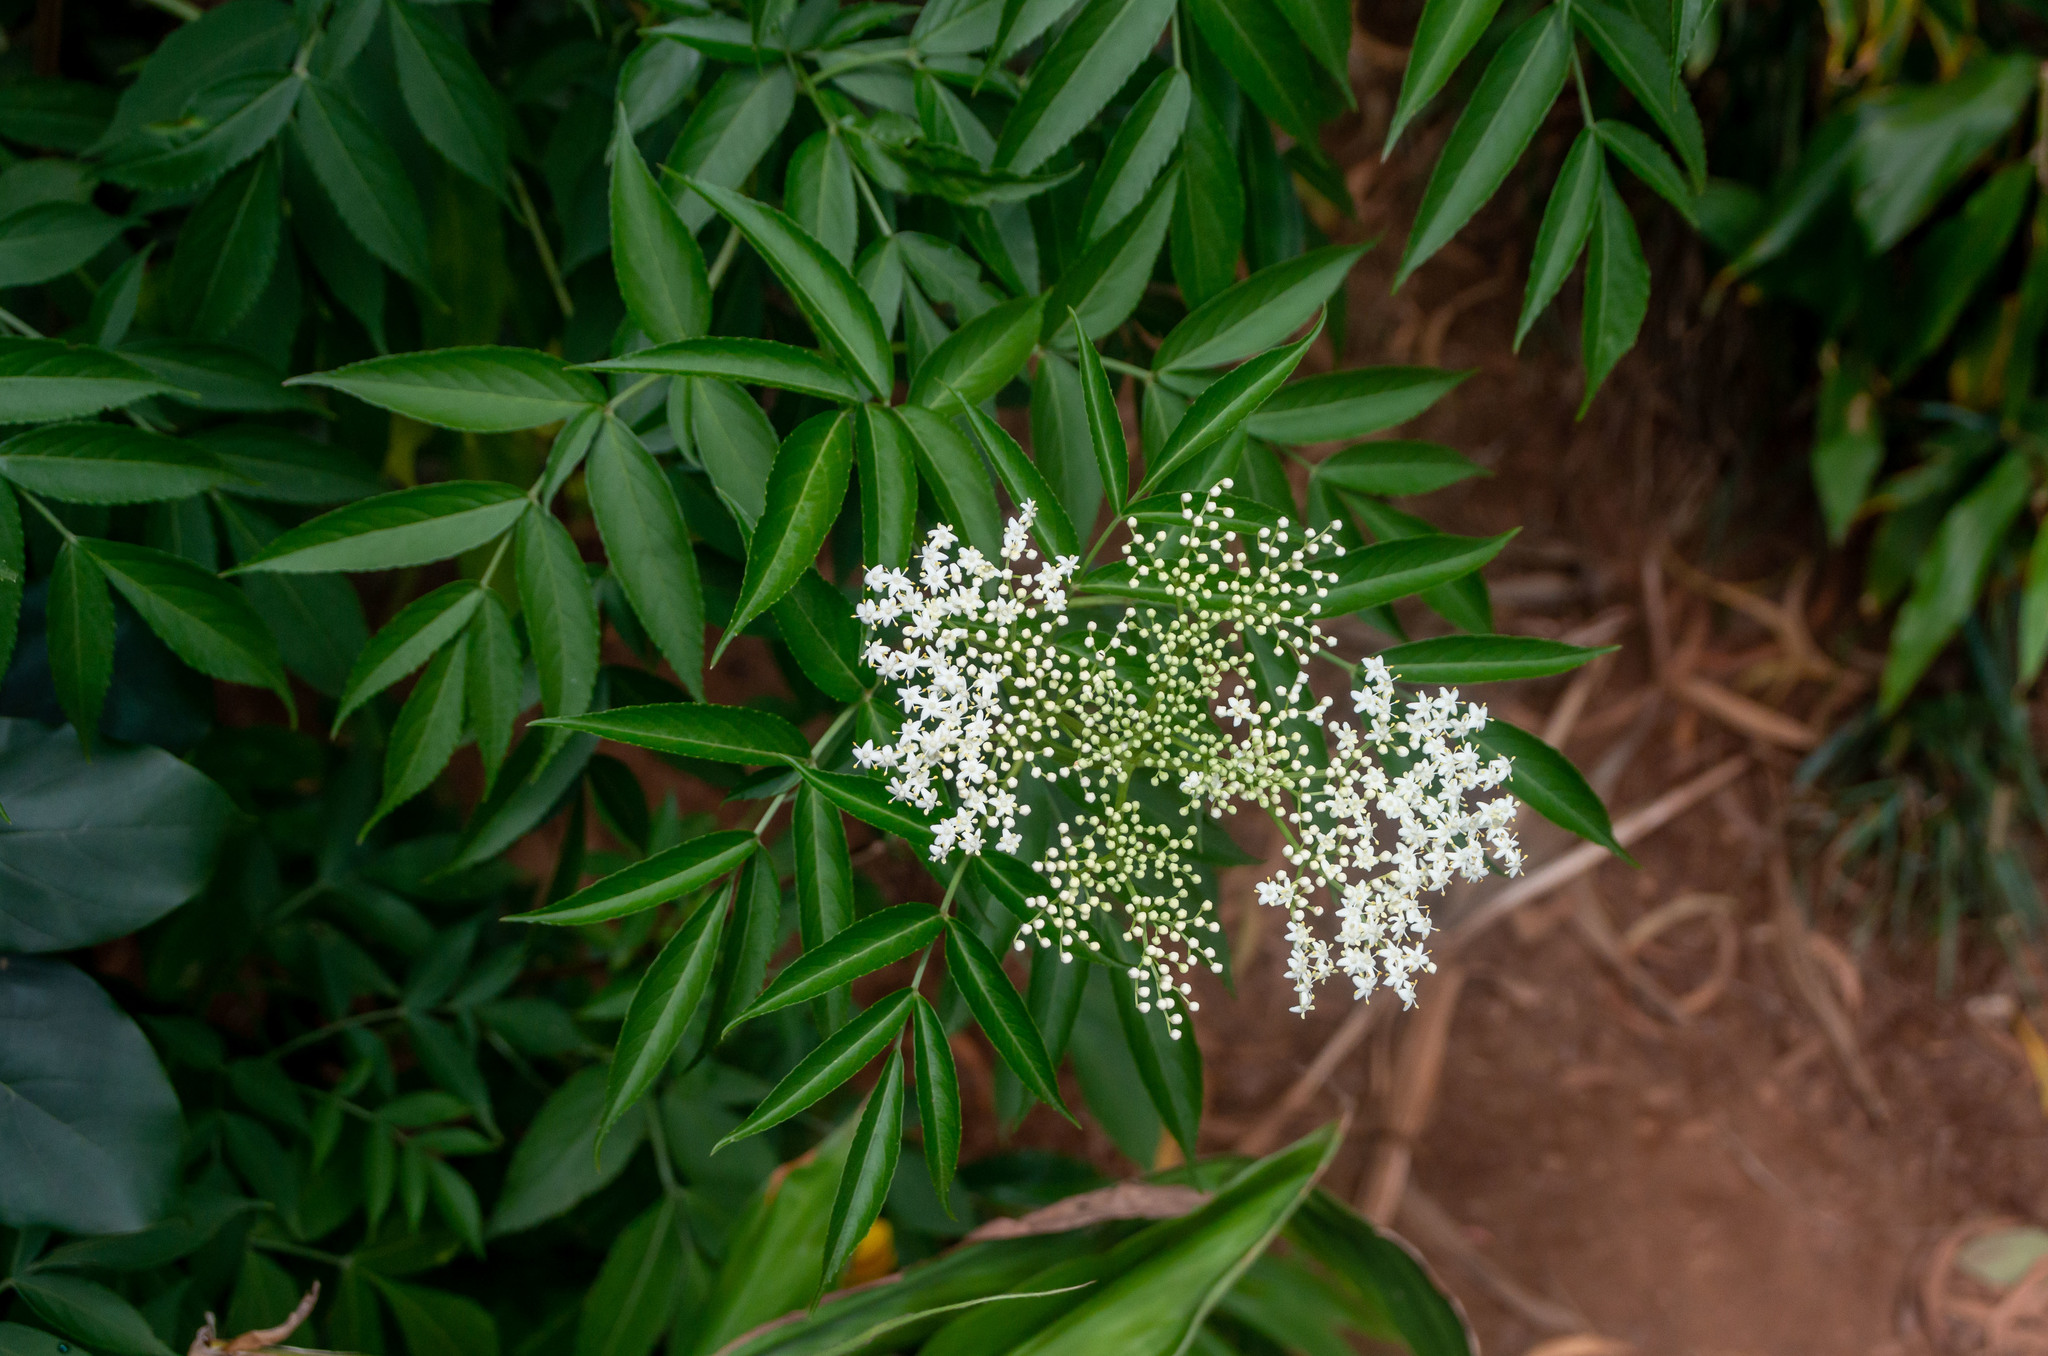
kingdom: Plantae
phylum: Tracheophyta
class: Magnoliopsida
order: Dipsacales
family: Viburnaceae
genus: Sambucus
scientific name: Sambucus canadensis
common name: American elder
